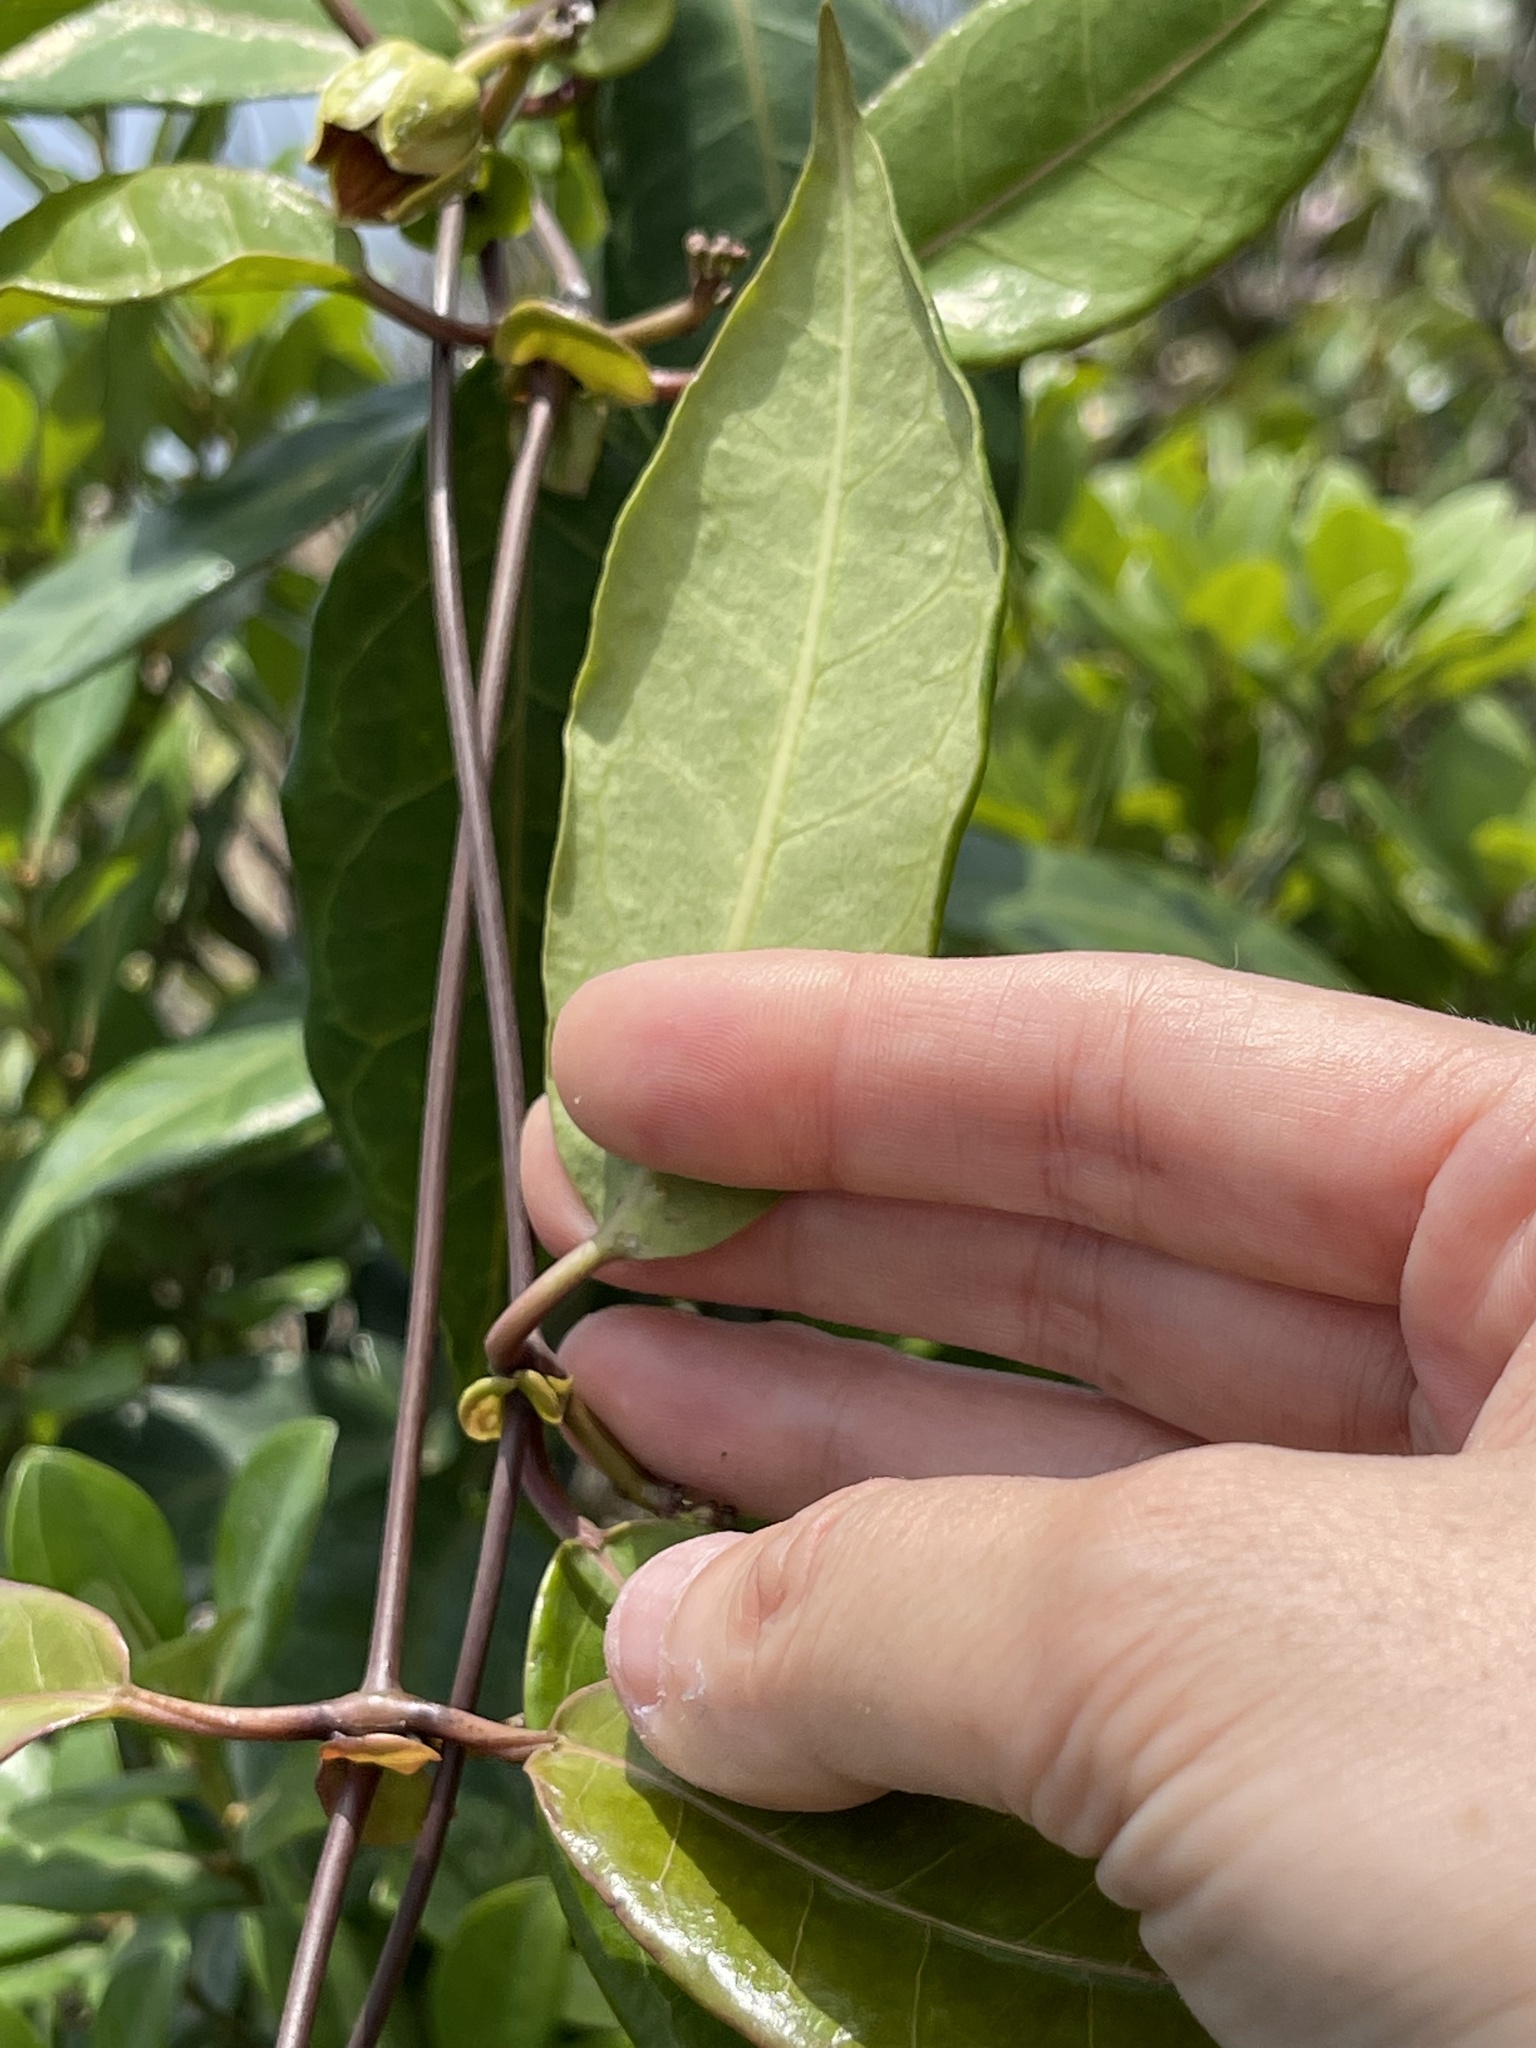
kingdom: Plantae
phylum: Tracheophyta
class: Magnoliopsida
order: Gentianales
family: Apocynaceae
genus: Cynanchum
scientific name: Cynanchum graphistemmatoides
